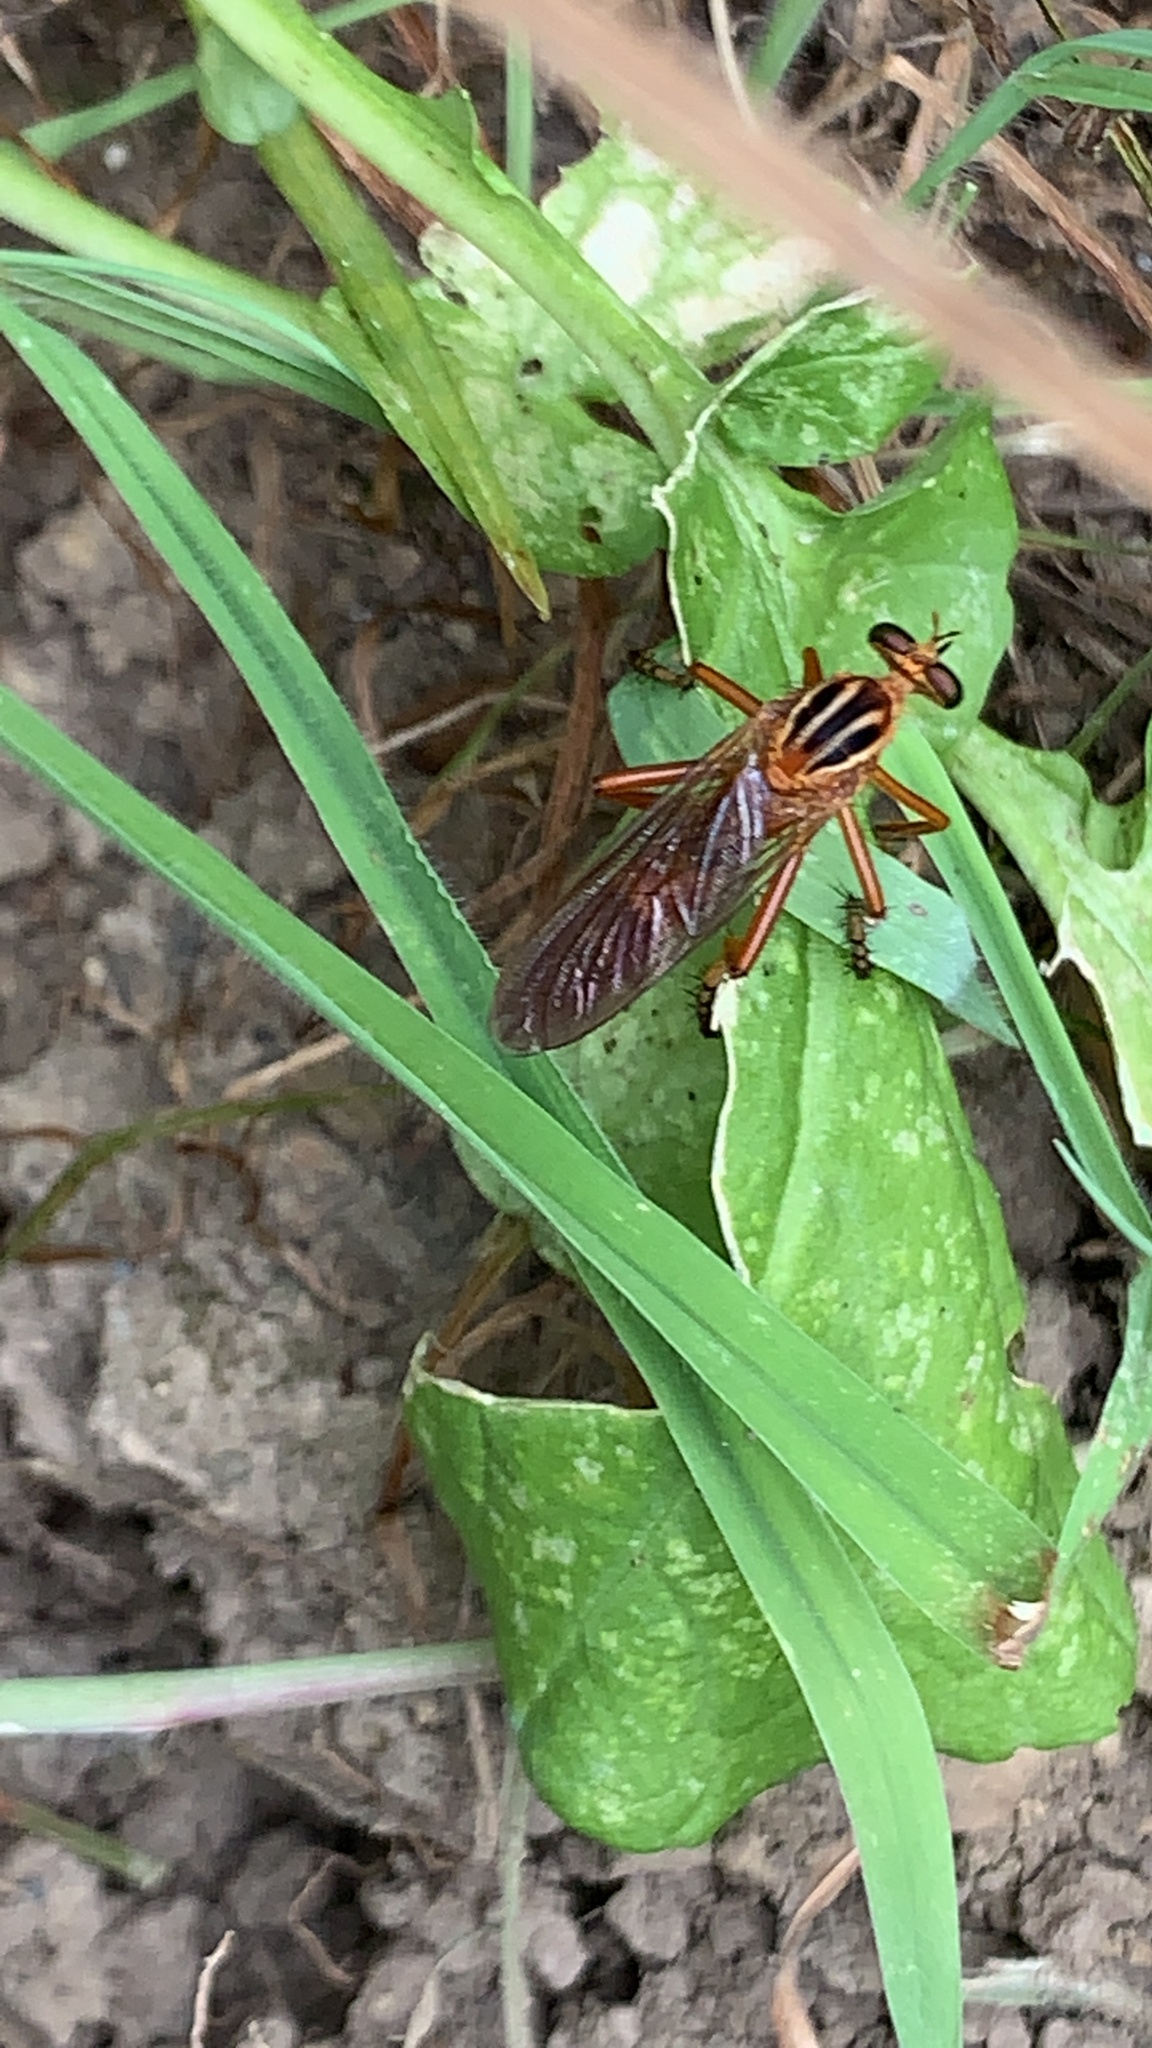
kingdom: Animalia
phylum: Arthropoda
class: Insecta
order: Diptera
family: Asilidae
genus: Diogmites
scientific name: Diogmites neoternatus
